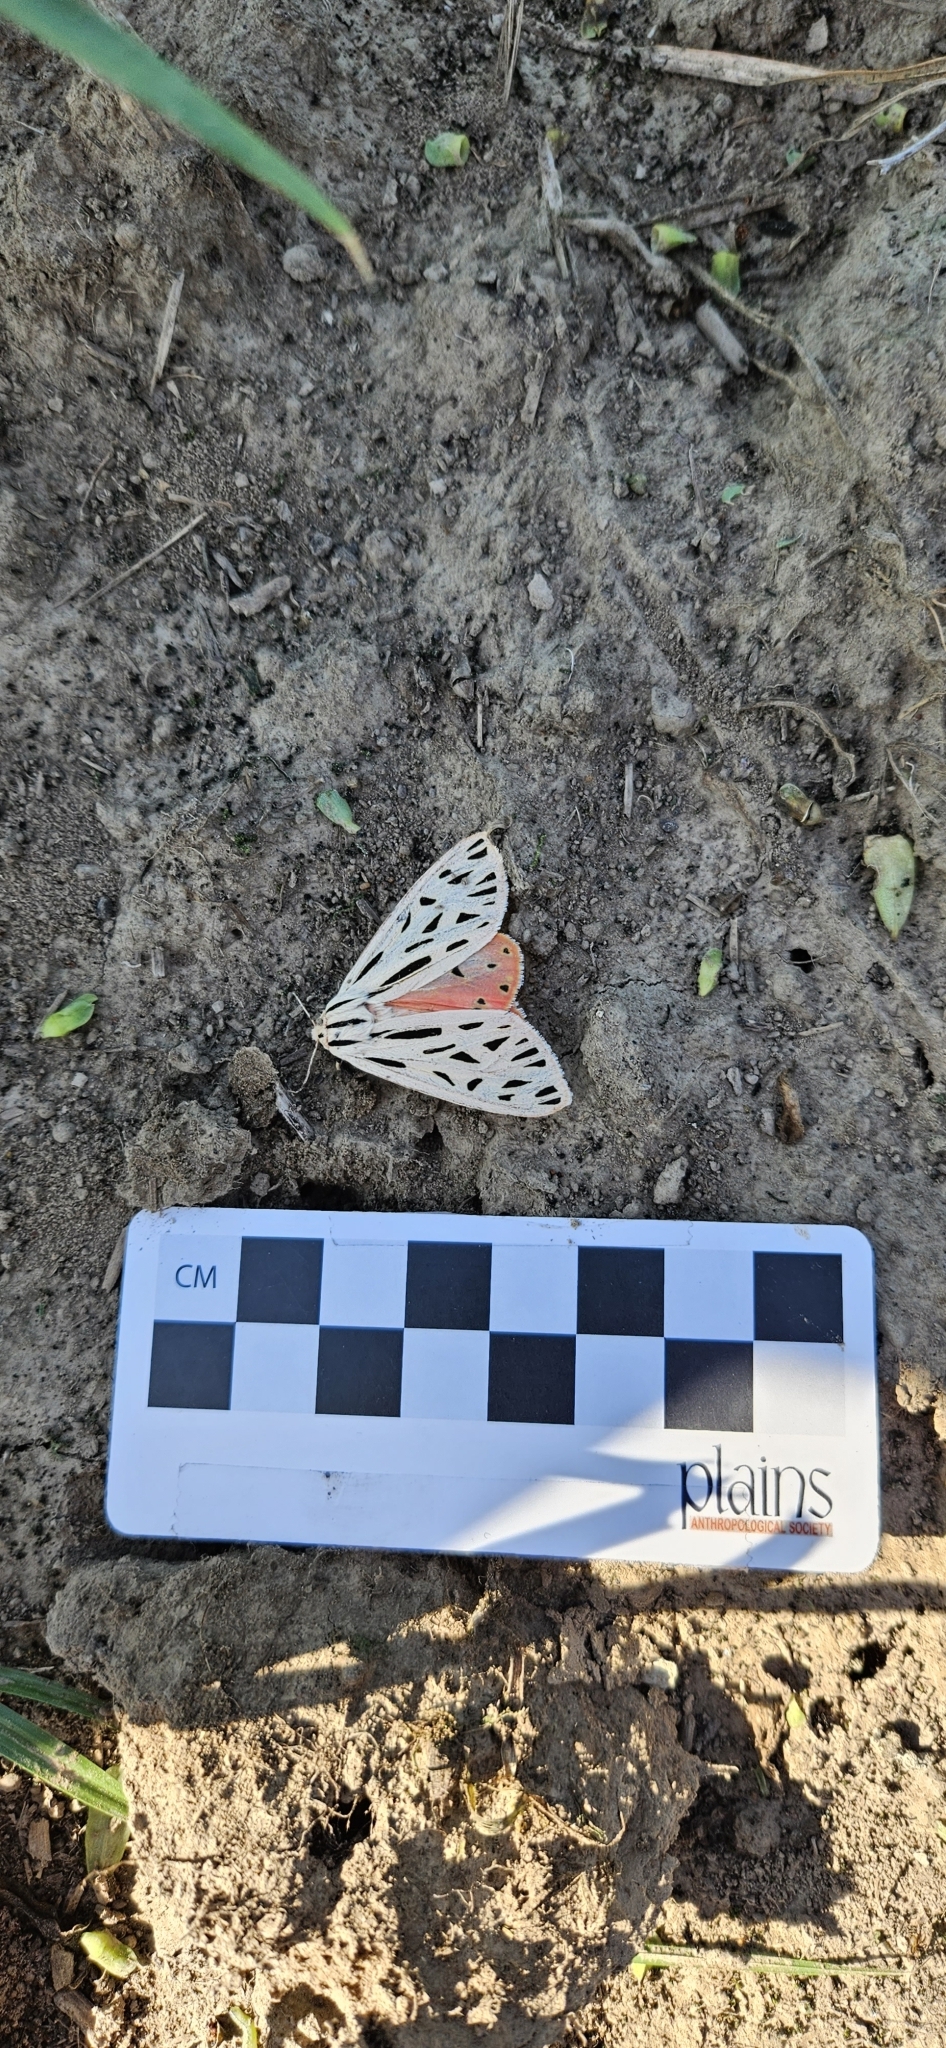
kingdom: Animalia
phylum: Arthropoda
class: Insecta
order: Lepidoptera
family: Erebidae
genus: Apantesis
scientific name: Apantesis arge
